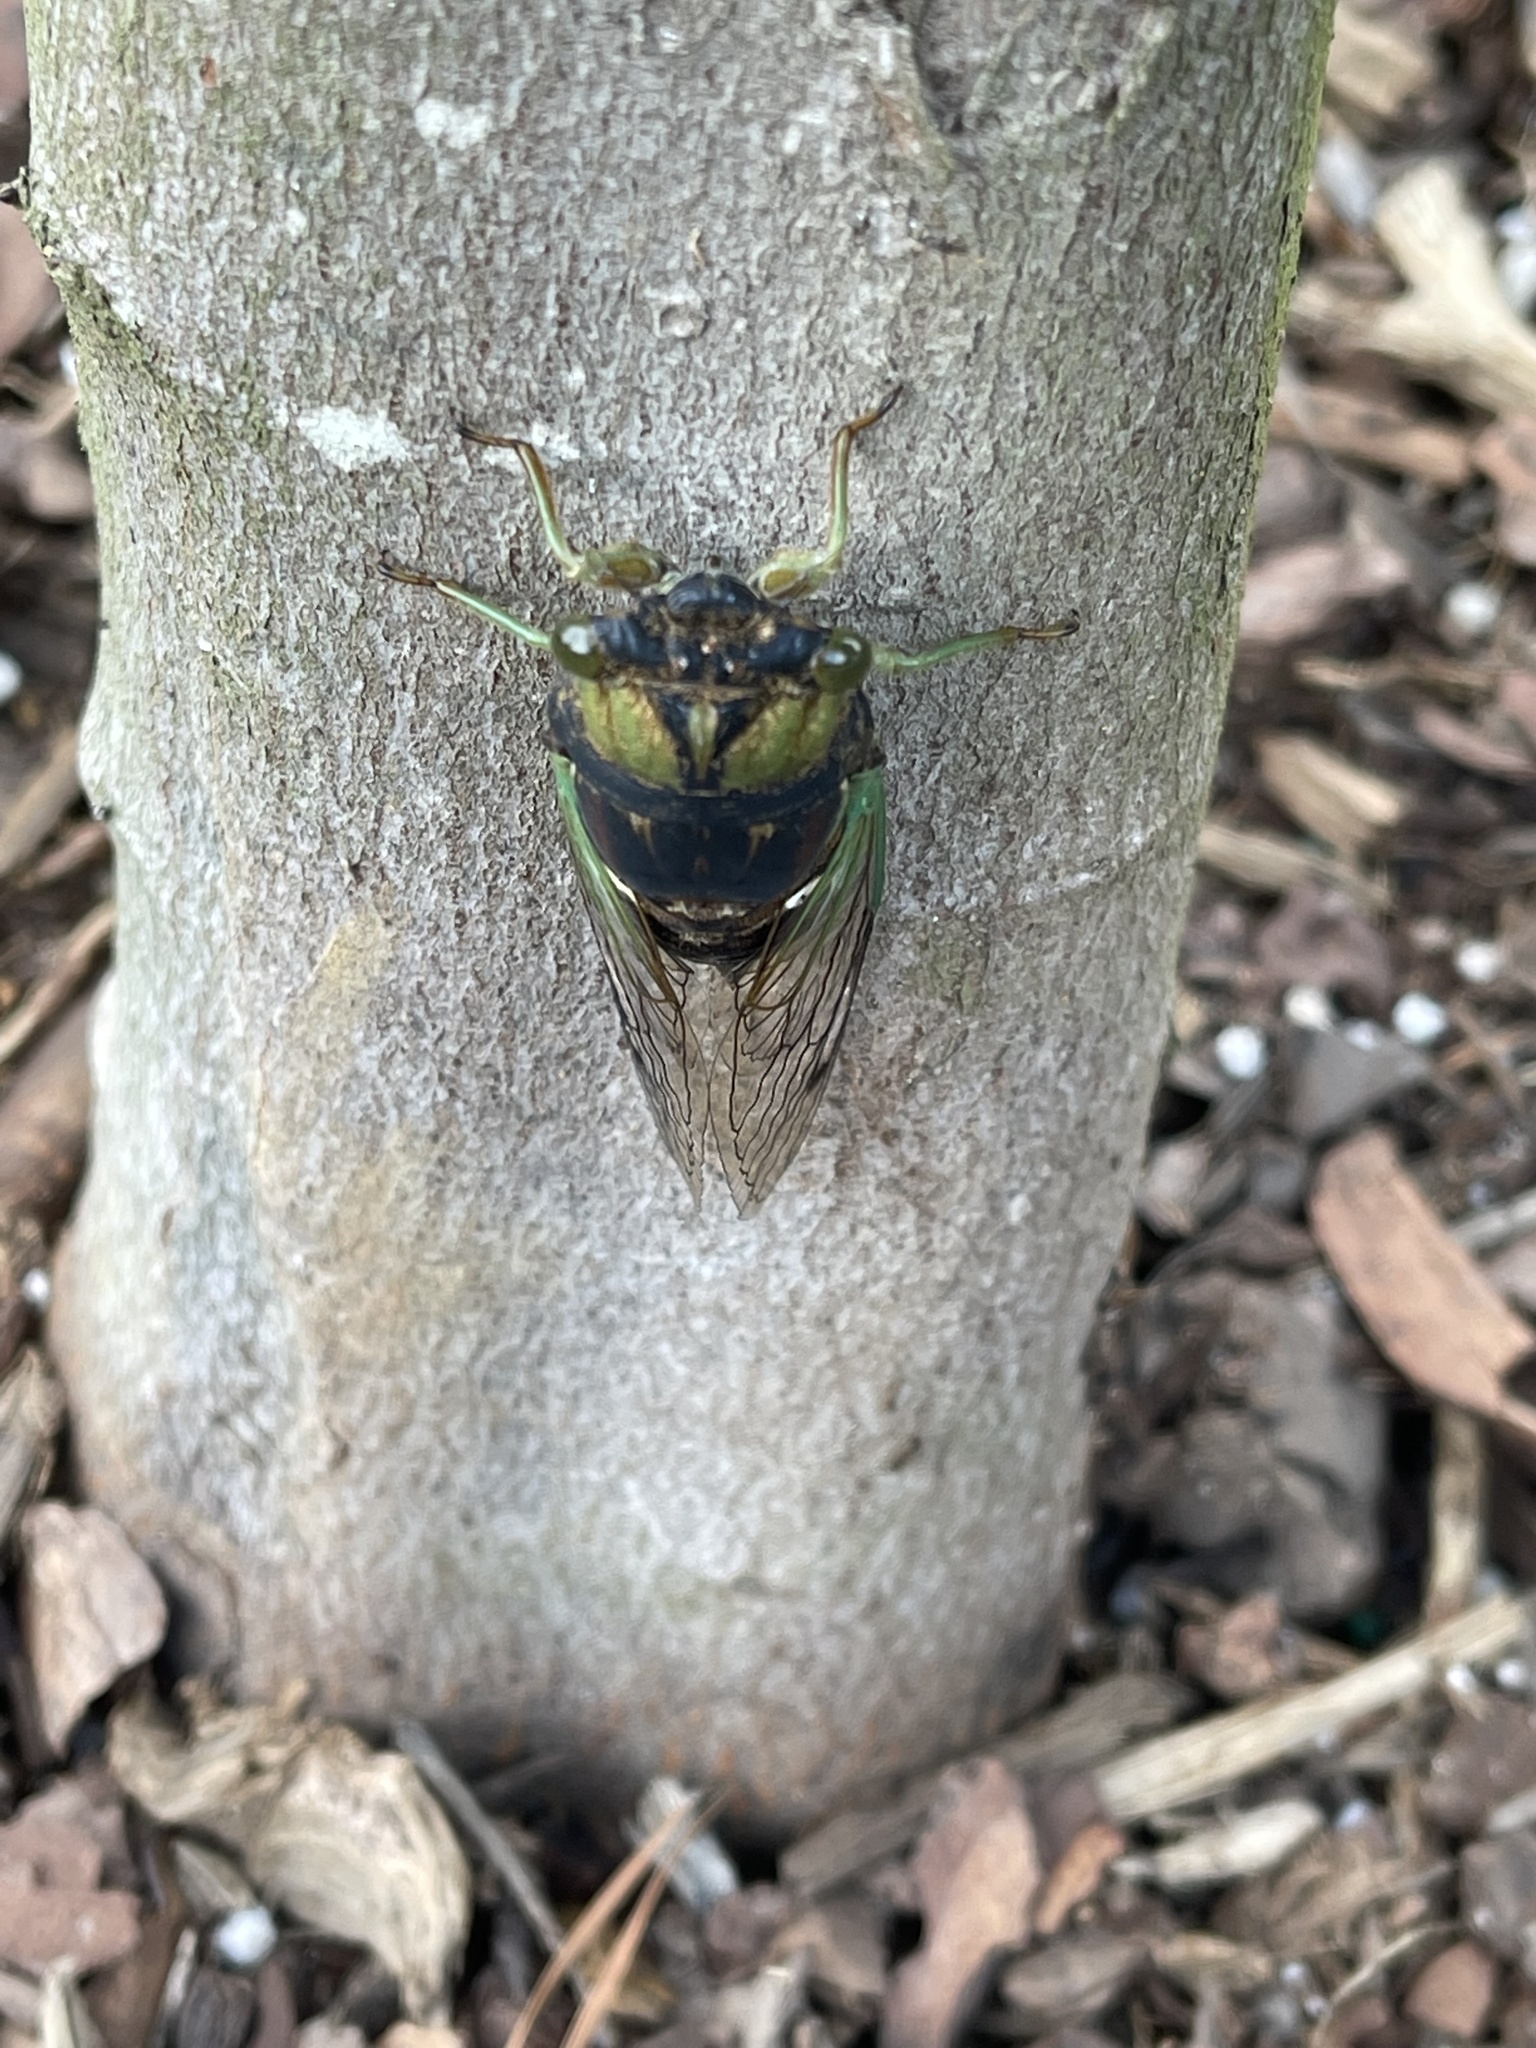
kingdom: Animalia
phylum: Arthropoda
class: Insecta
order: Hemiptera
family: Cicadidae
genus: Neotibicen
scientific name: Neotibicen tibicen
